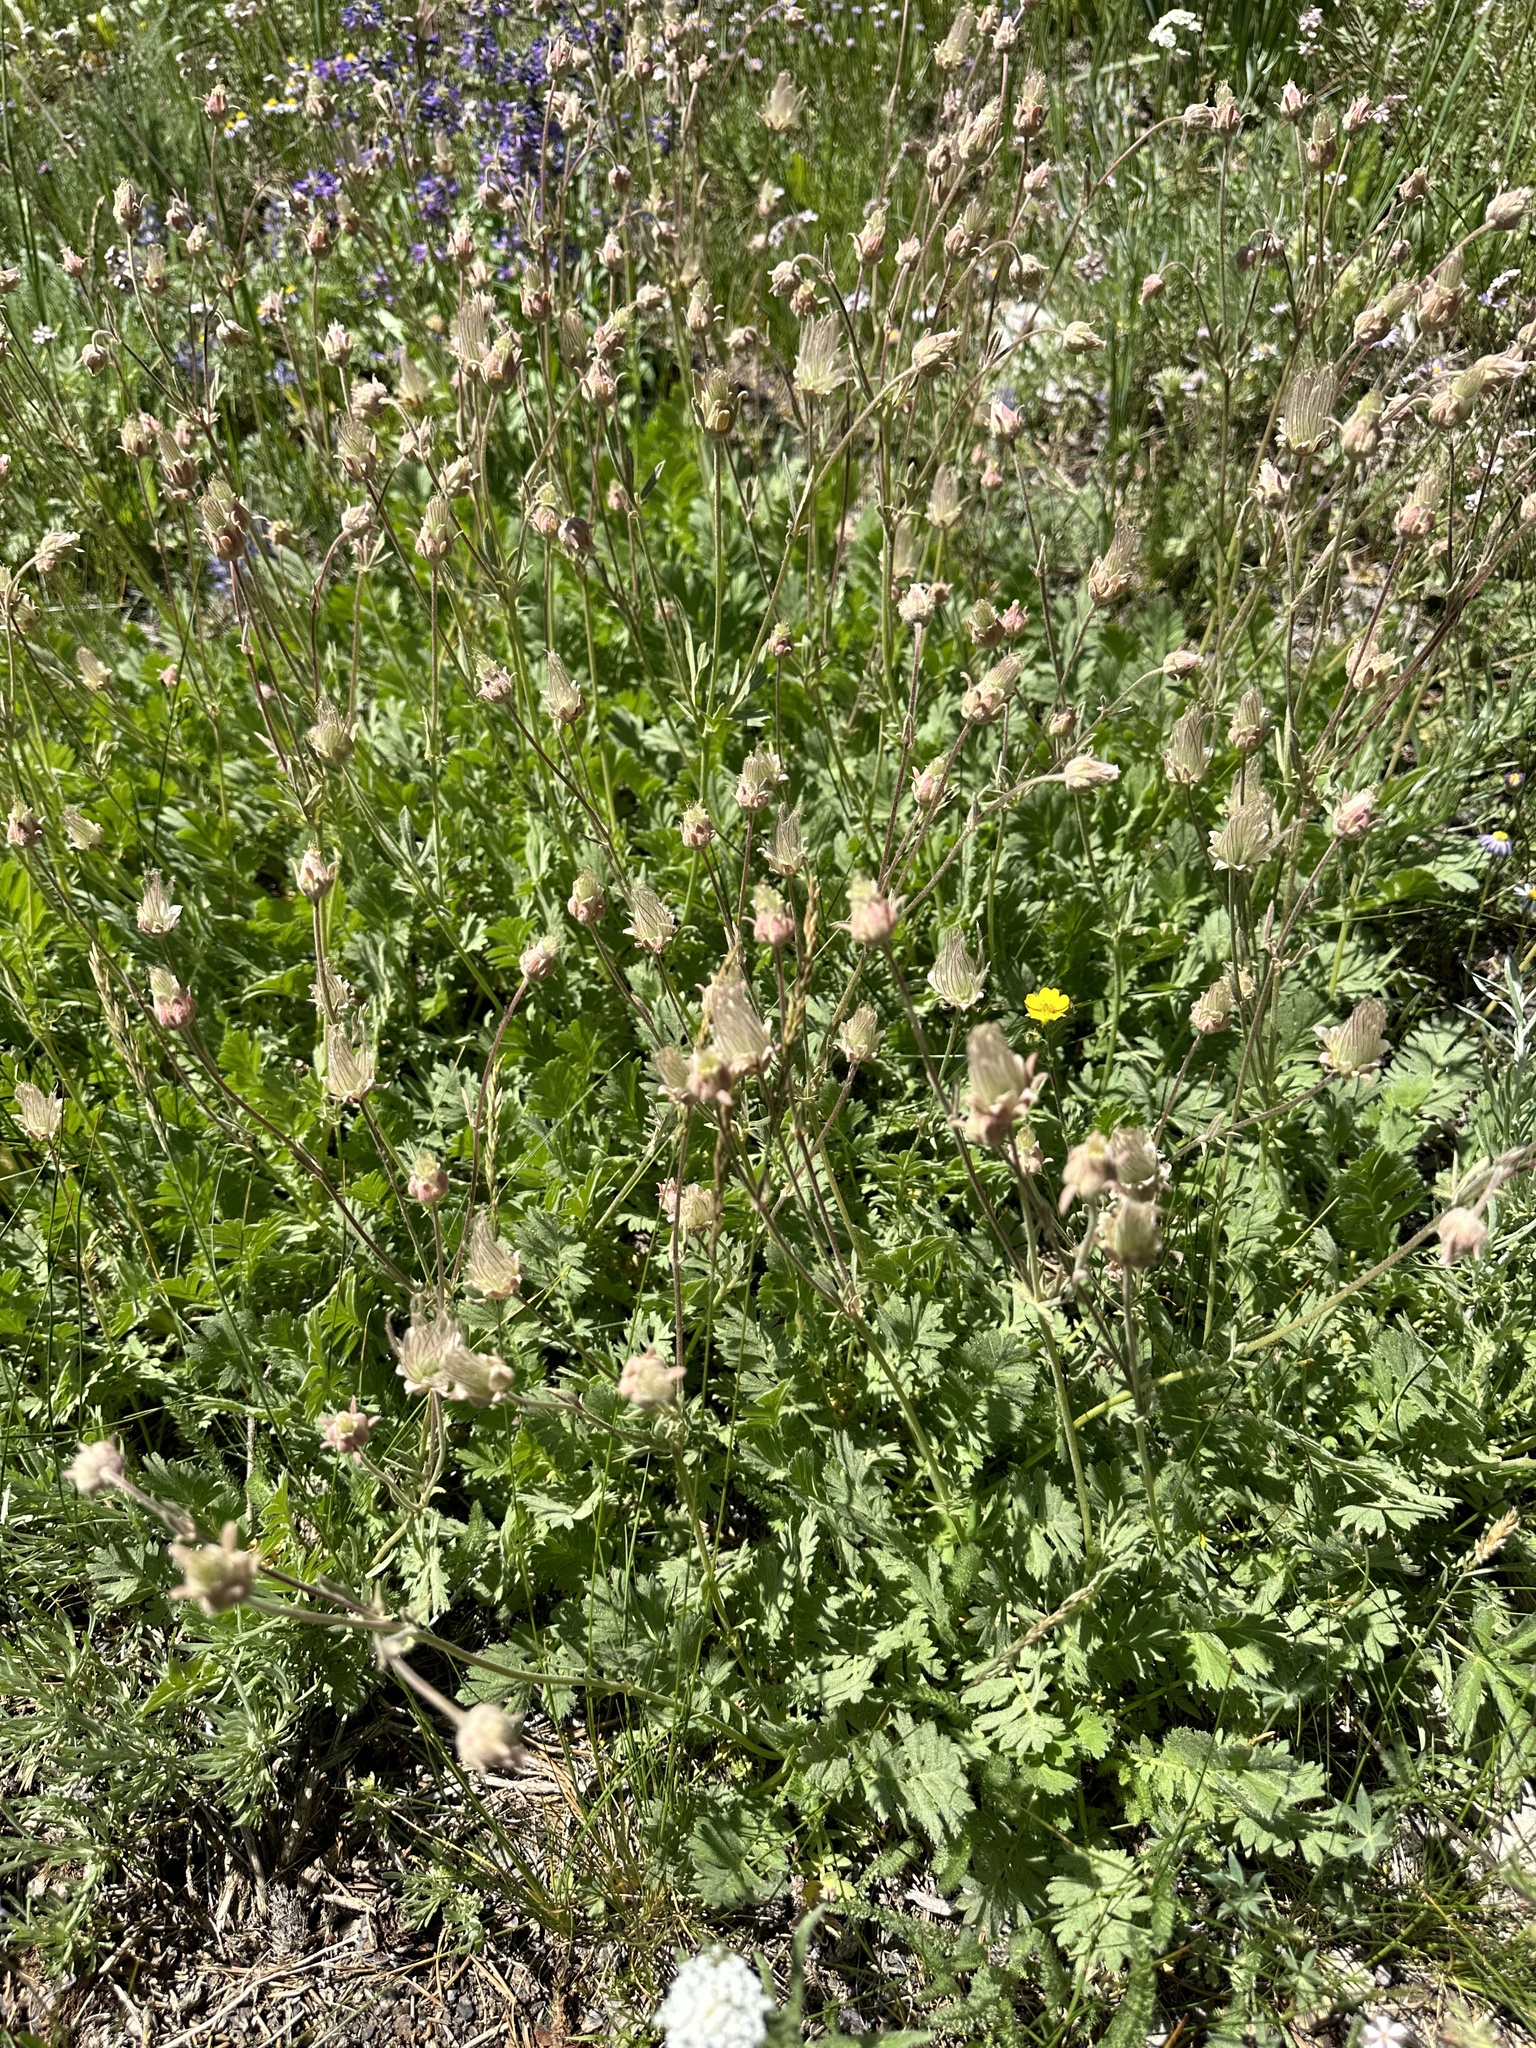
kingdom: Plantae
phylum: Tracheophyta
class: Magnoliopsida
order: Rosales
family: Rosaceae
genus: Geum
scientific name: Geum triflorum
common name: Old man's whiskers
